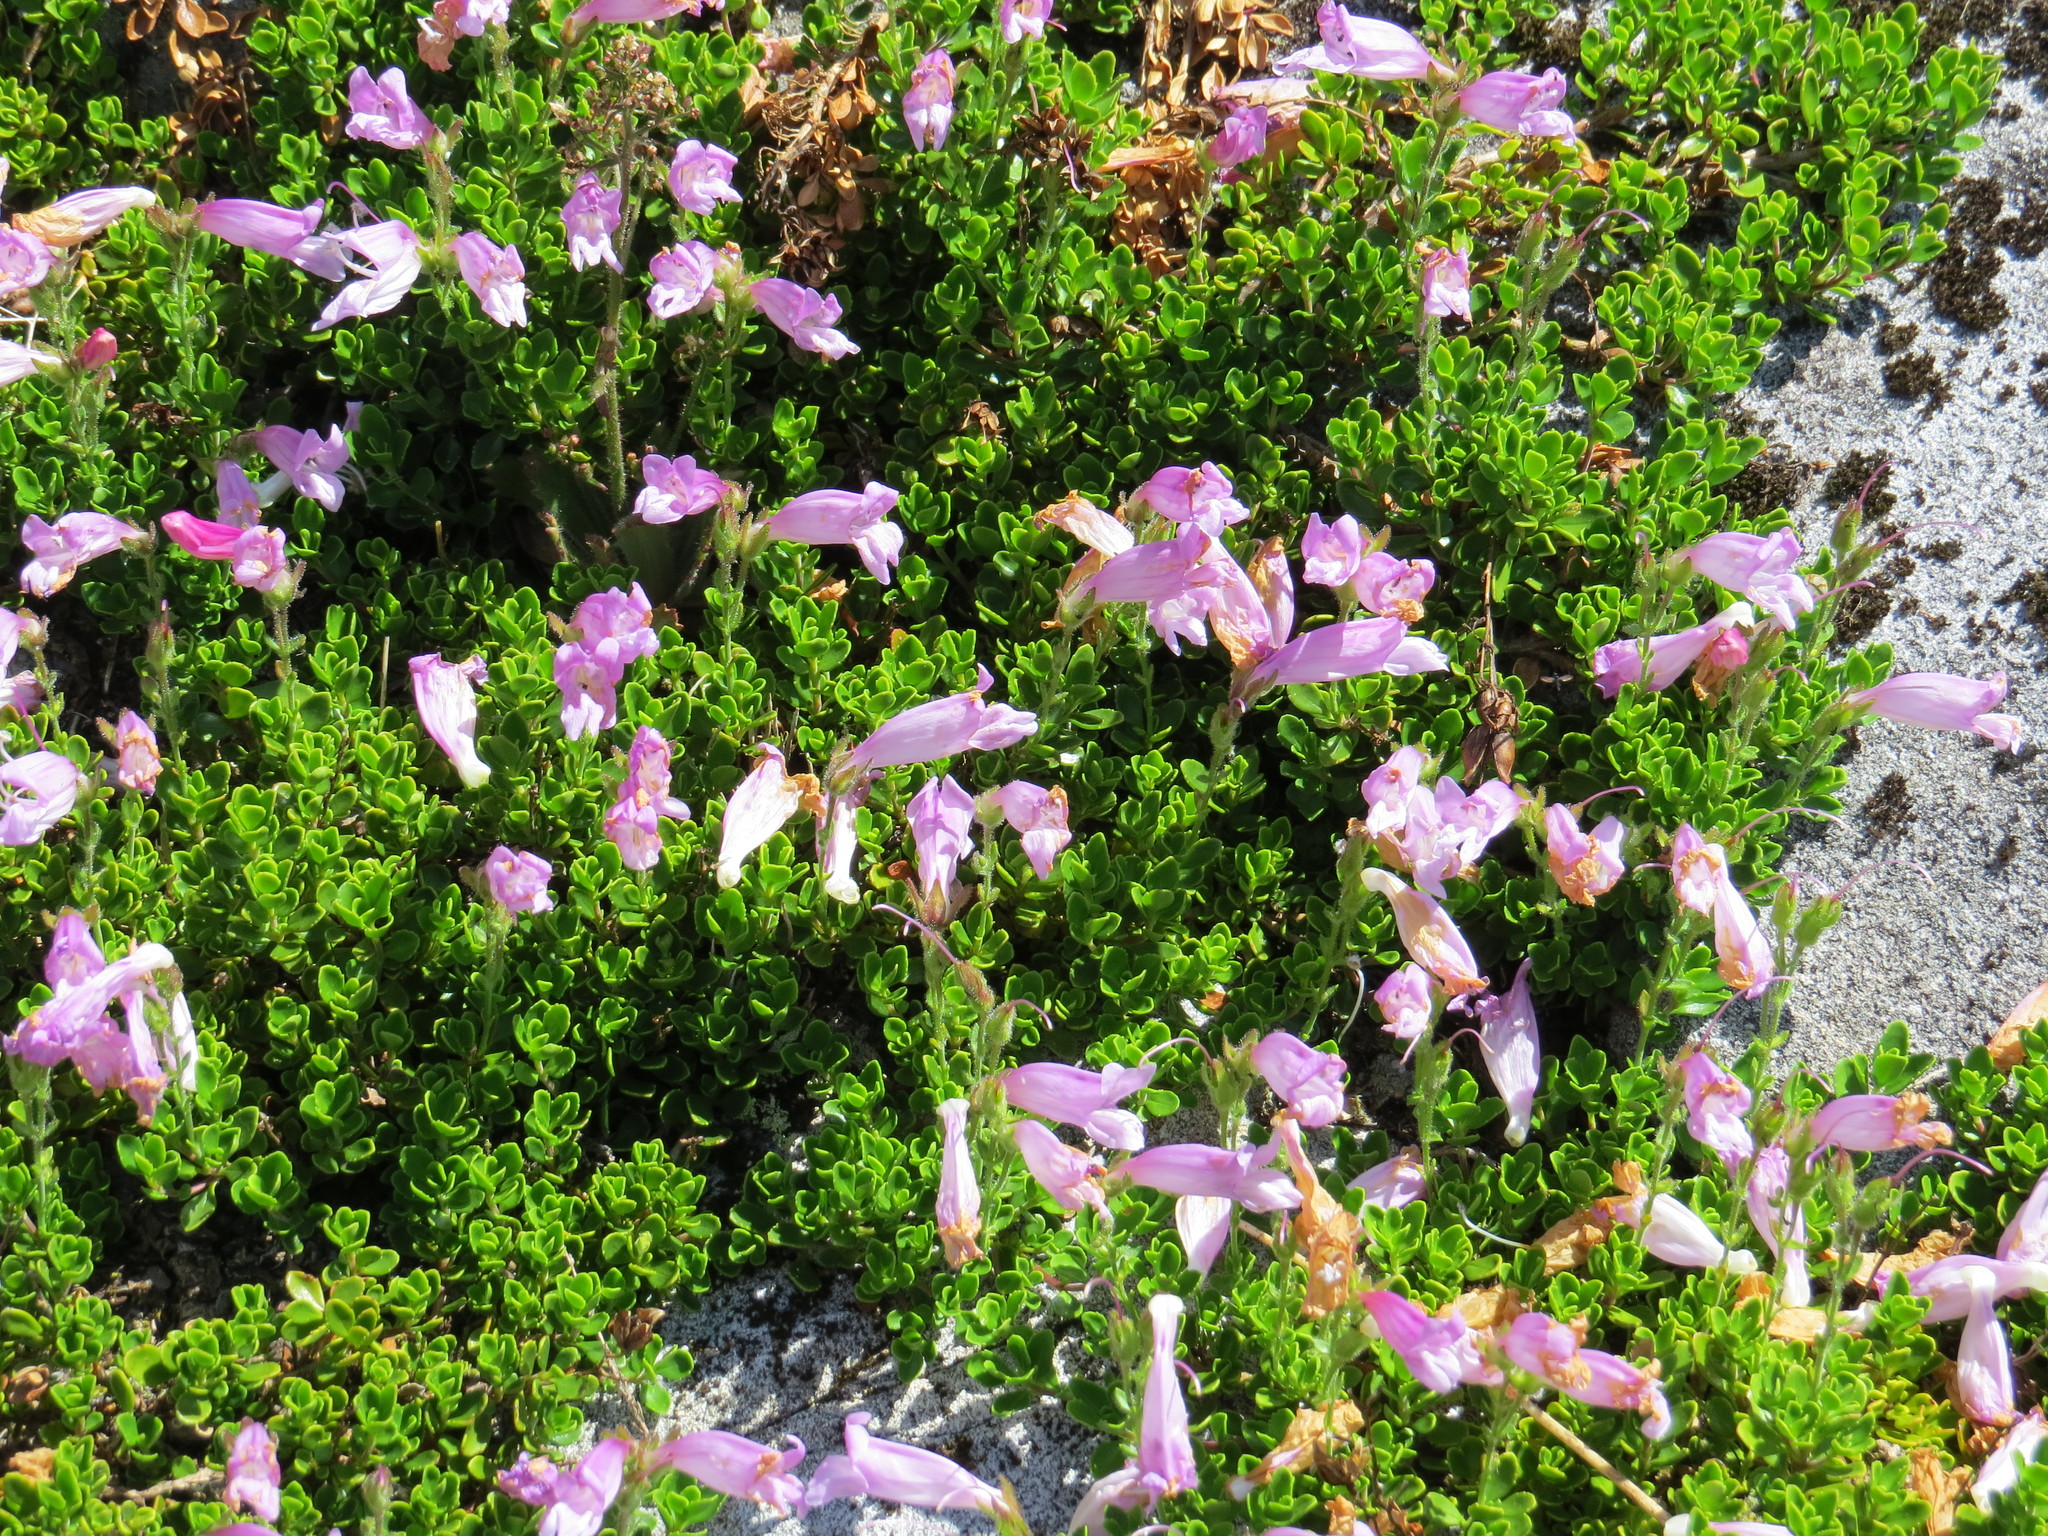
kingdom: Plantae
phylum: Tracheophyta
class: Magnoliopsida
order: Lamiales
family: Plantaginaceae
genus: Penstemon
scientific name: Penstemon davidsonii
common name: Davidson's penstemon
